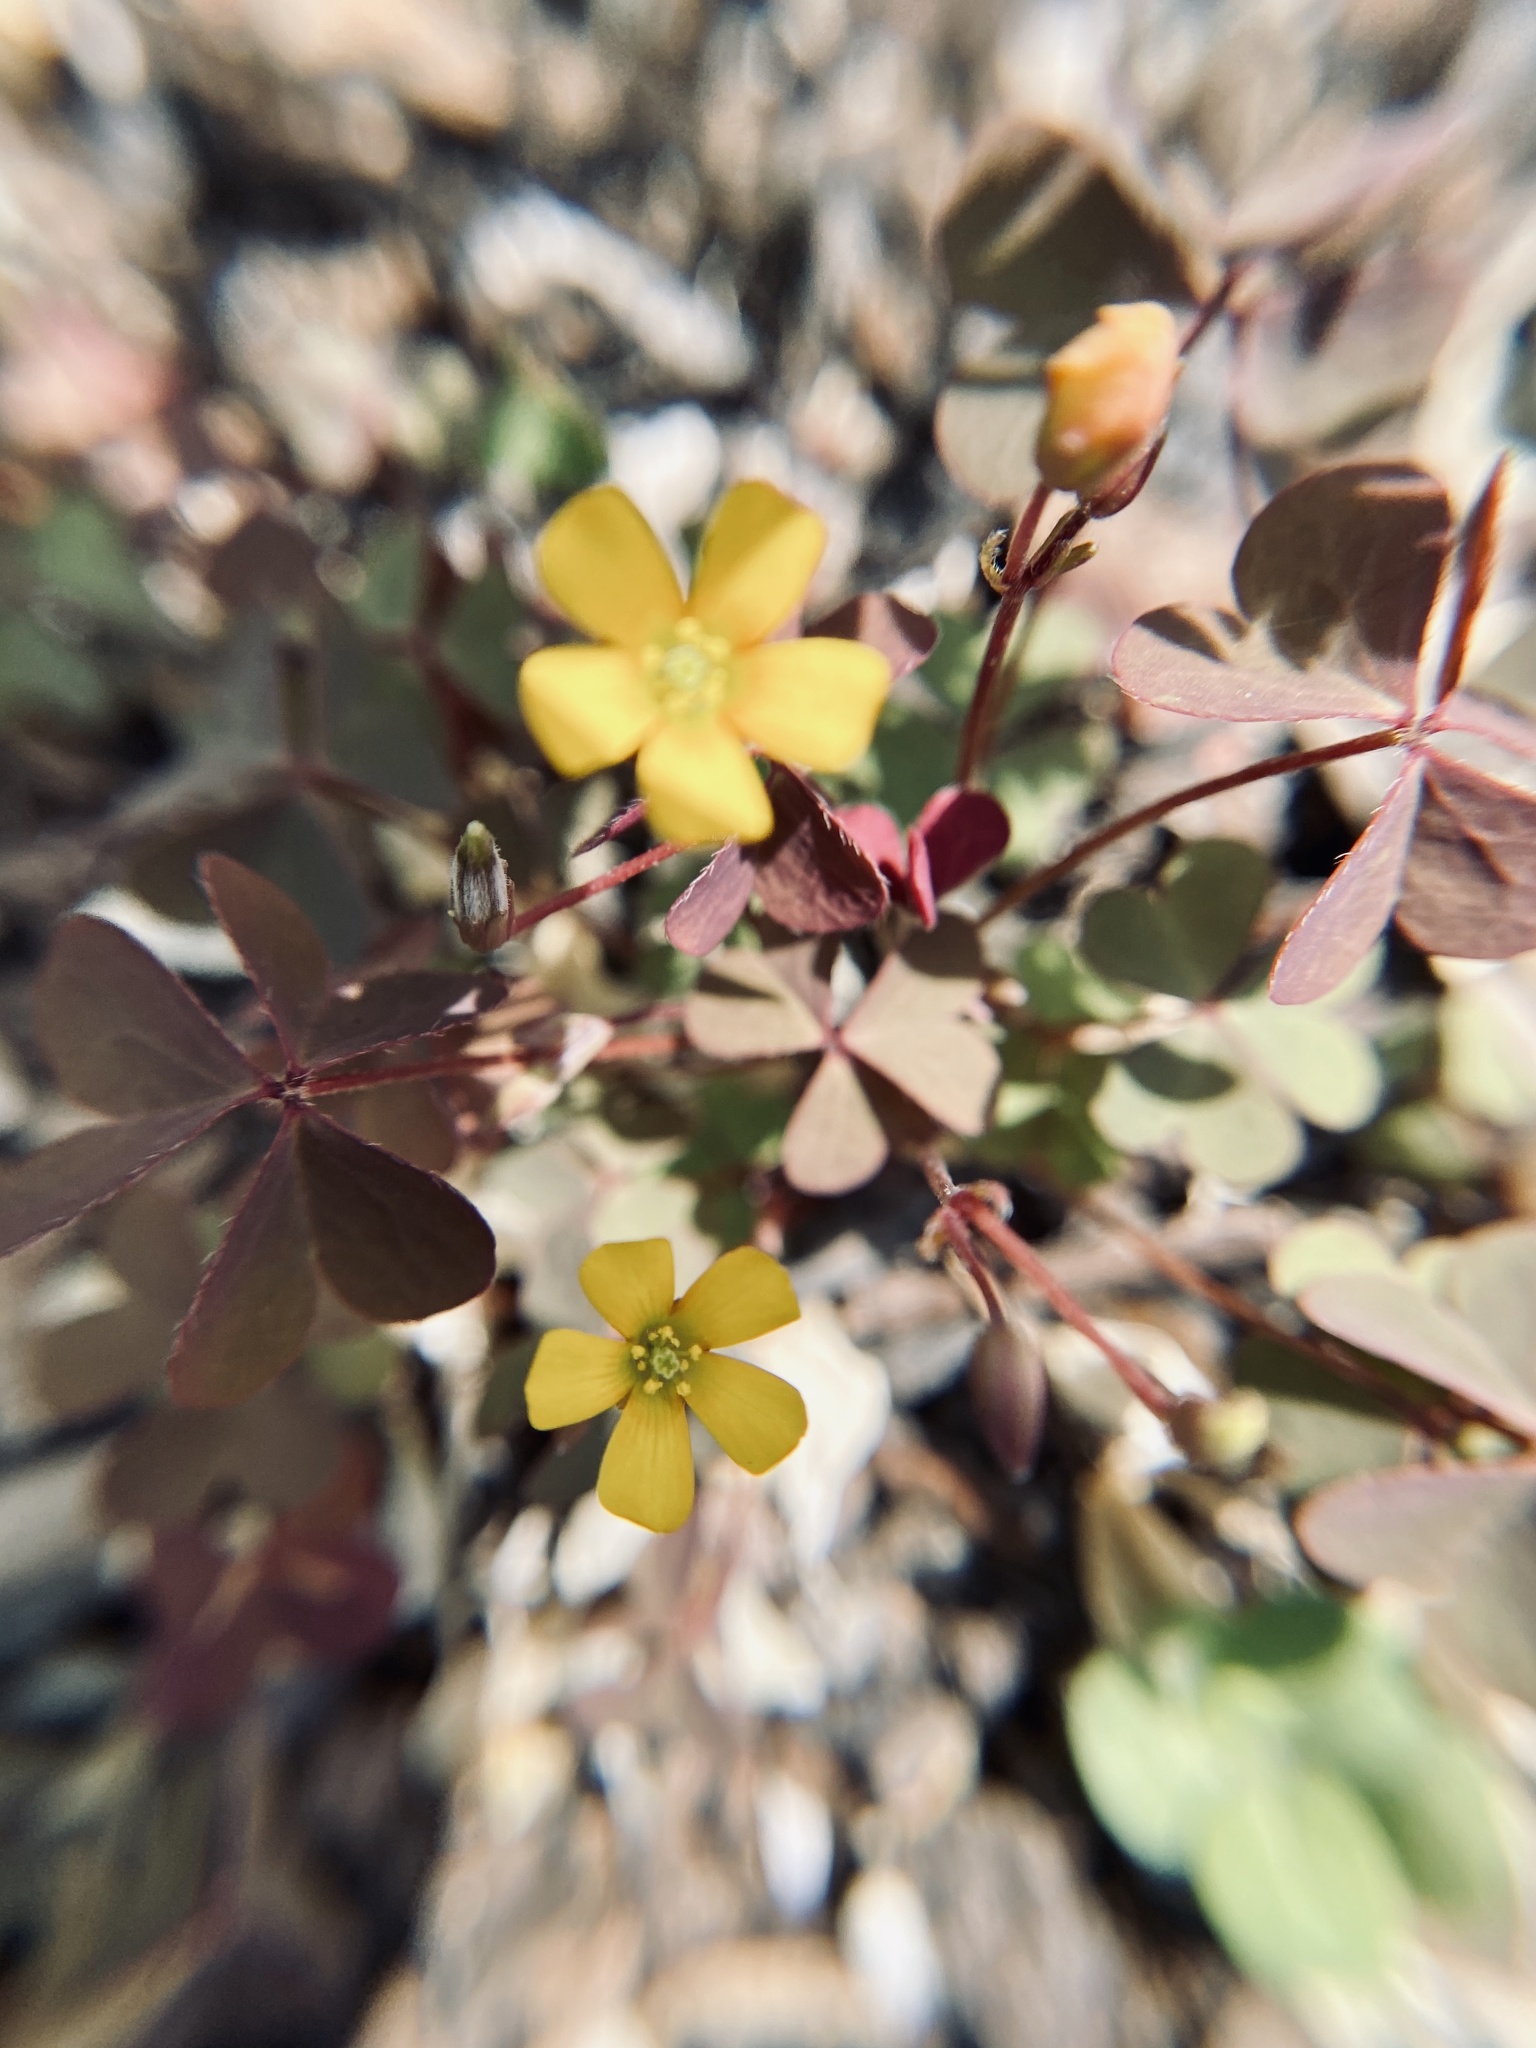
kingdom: Plantae
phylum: Tracheophyta
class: Magnoliopsida
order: Oxalidales
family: Oxalidaceae
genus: Oxalis
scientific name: Oxalis corniculata
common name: Procumbent yellow-sorrel
